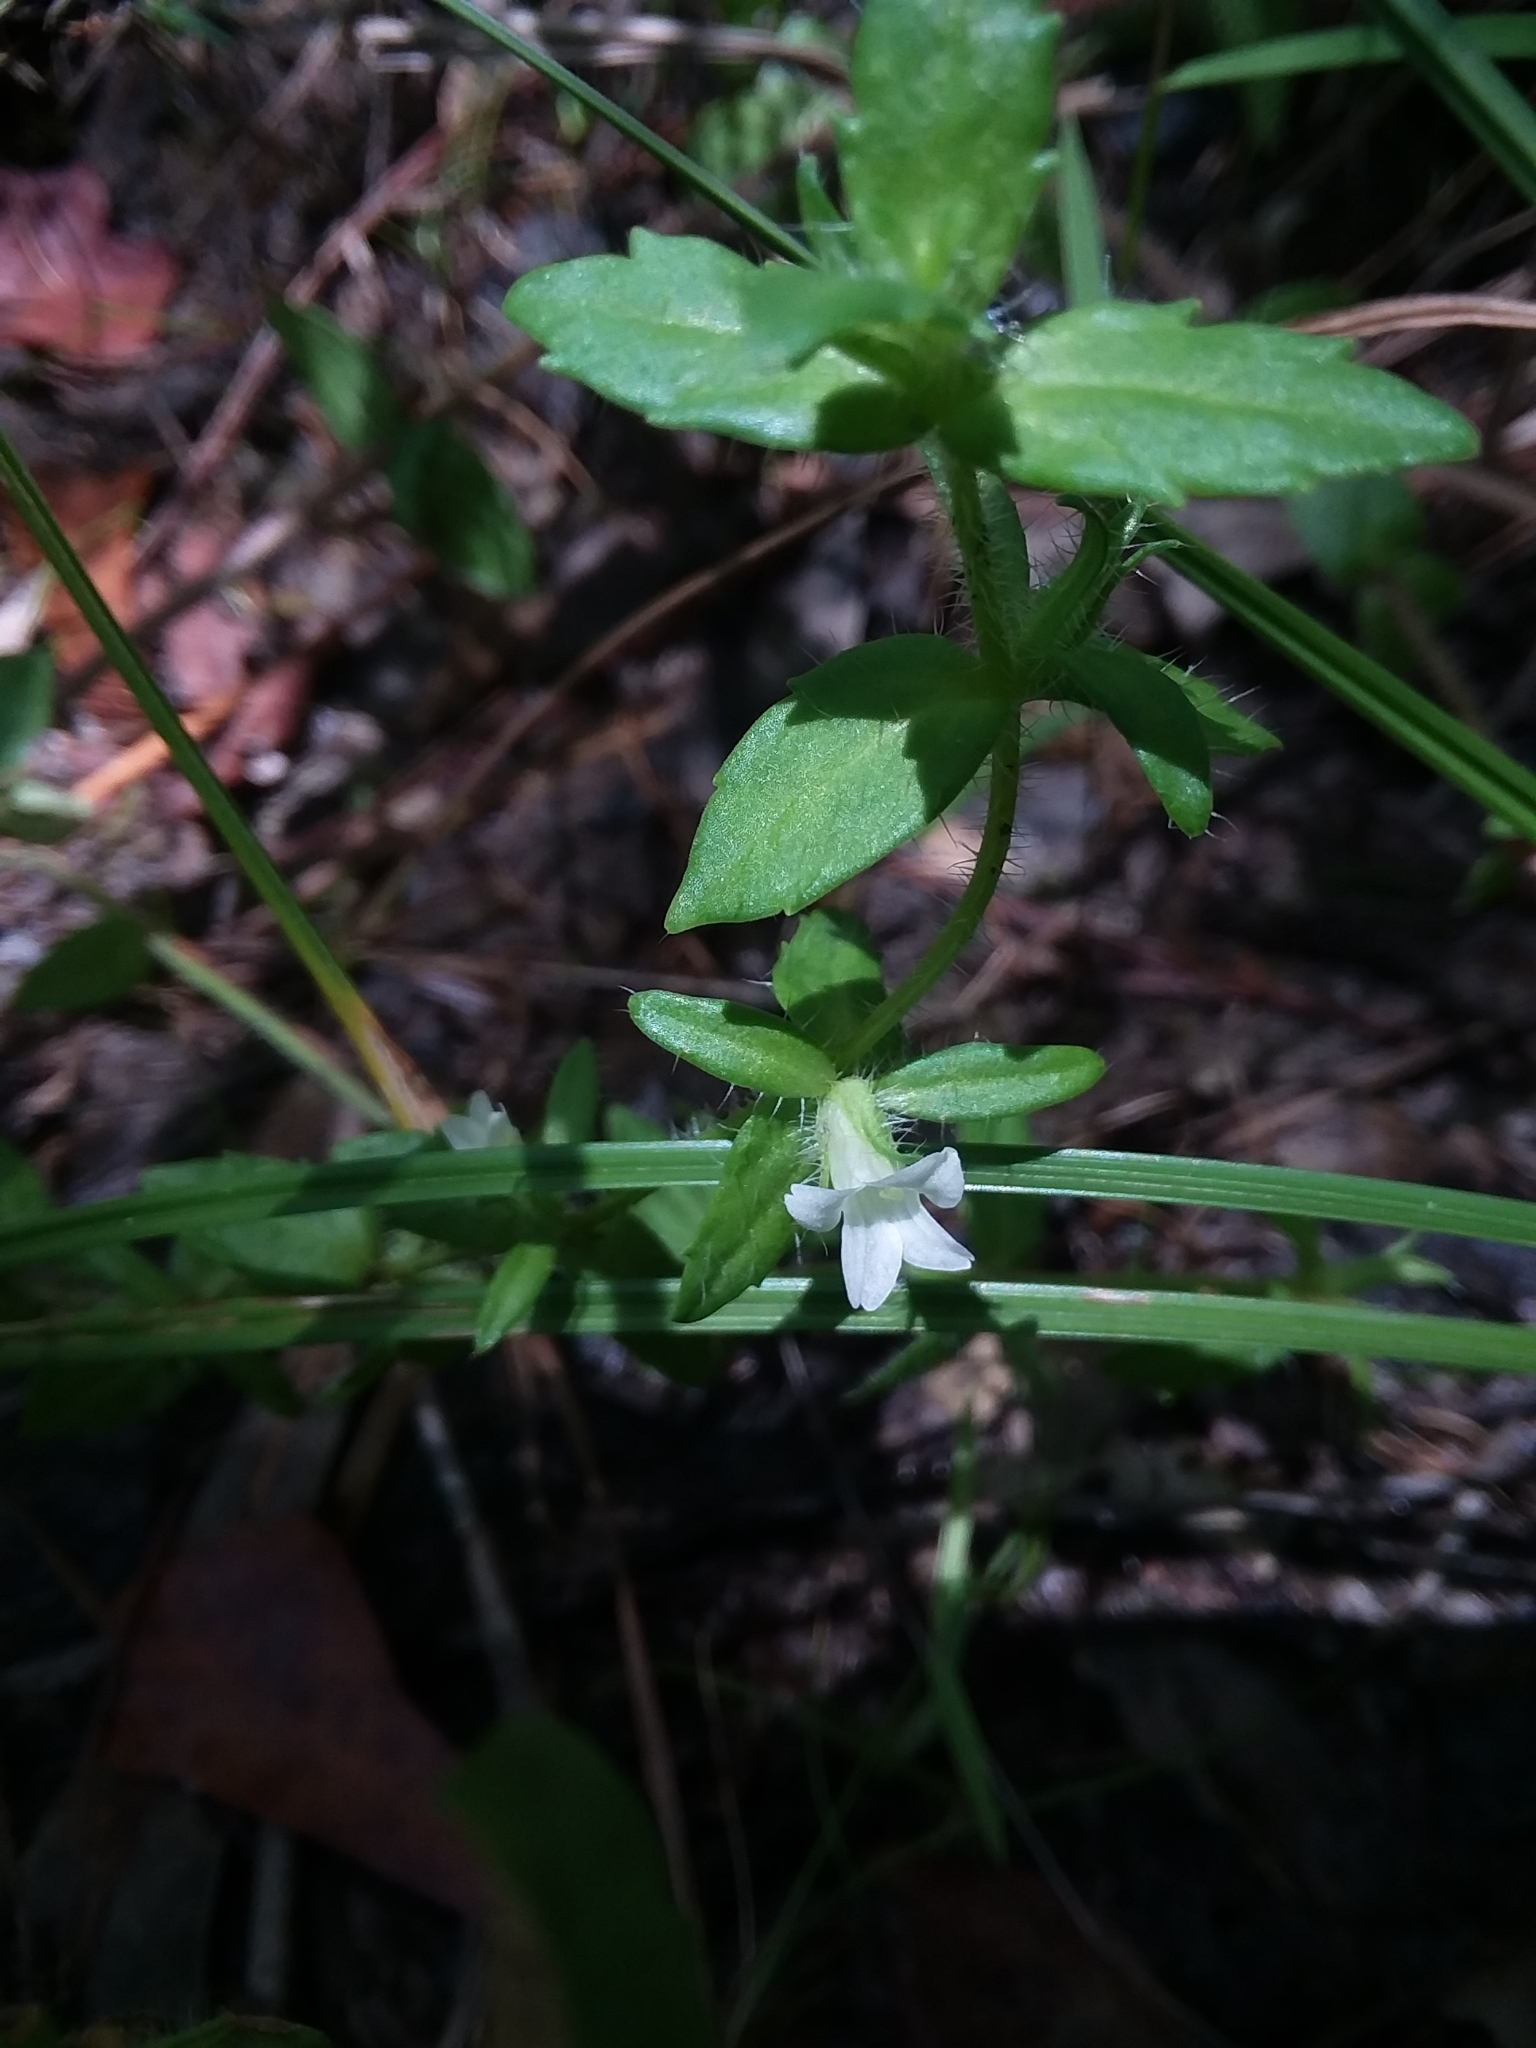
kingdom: Plantae
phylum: Tracheophyta
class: Magnoliopsida
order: Lamiales
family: Plantaginaceae
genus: Gratiola
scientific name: Gratiola pilosa
